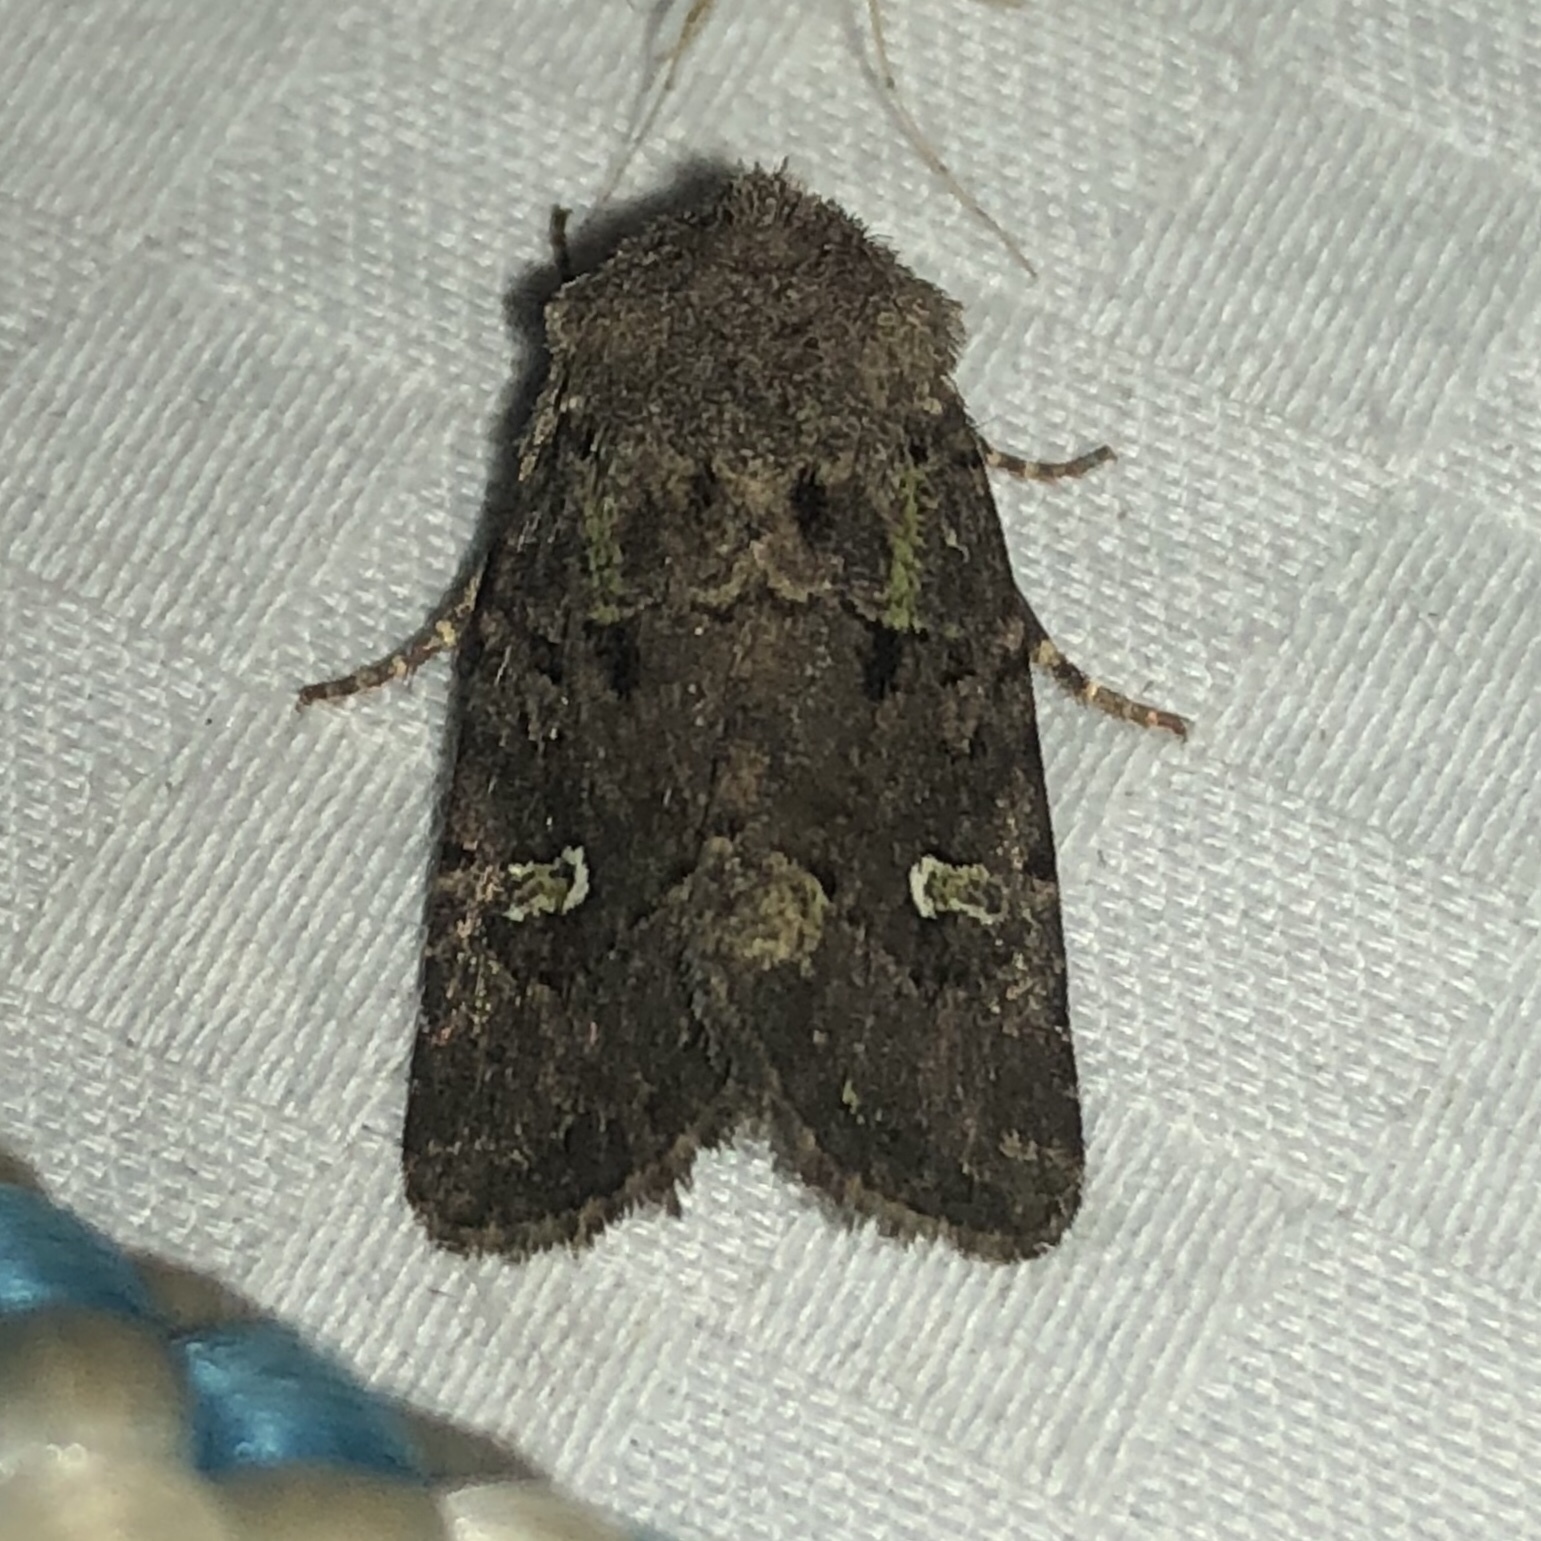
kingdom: Animalia
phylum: Arthropoda
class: Insecta
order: Lepidoptera
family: Noctuidae
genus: Lacinipolia
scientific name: Lacinipolia renigera
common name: Kidney-spotted minor
